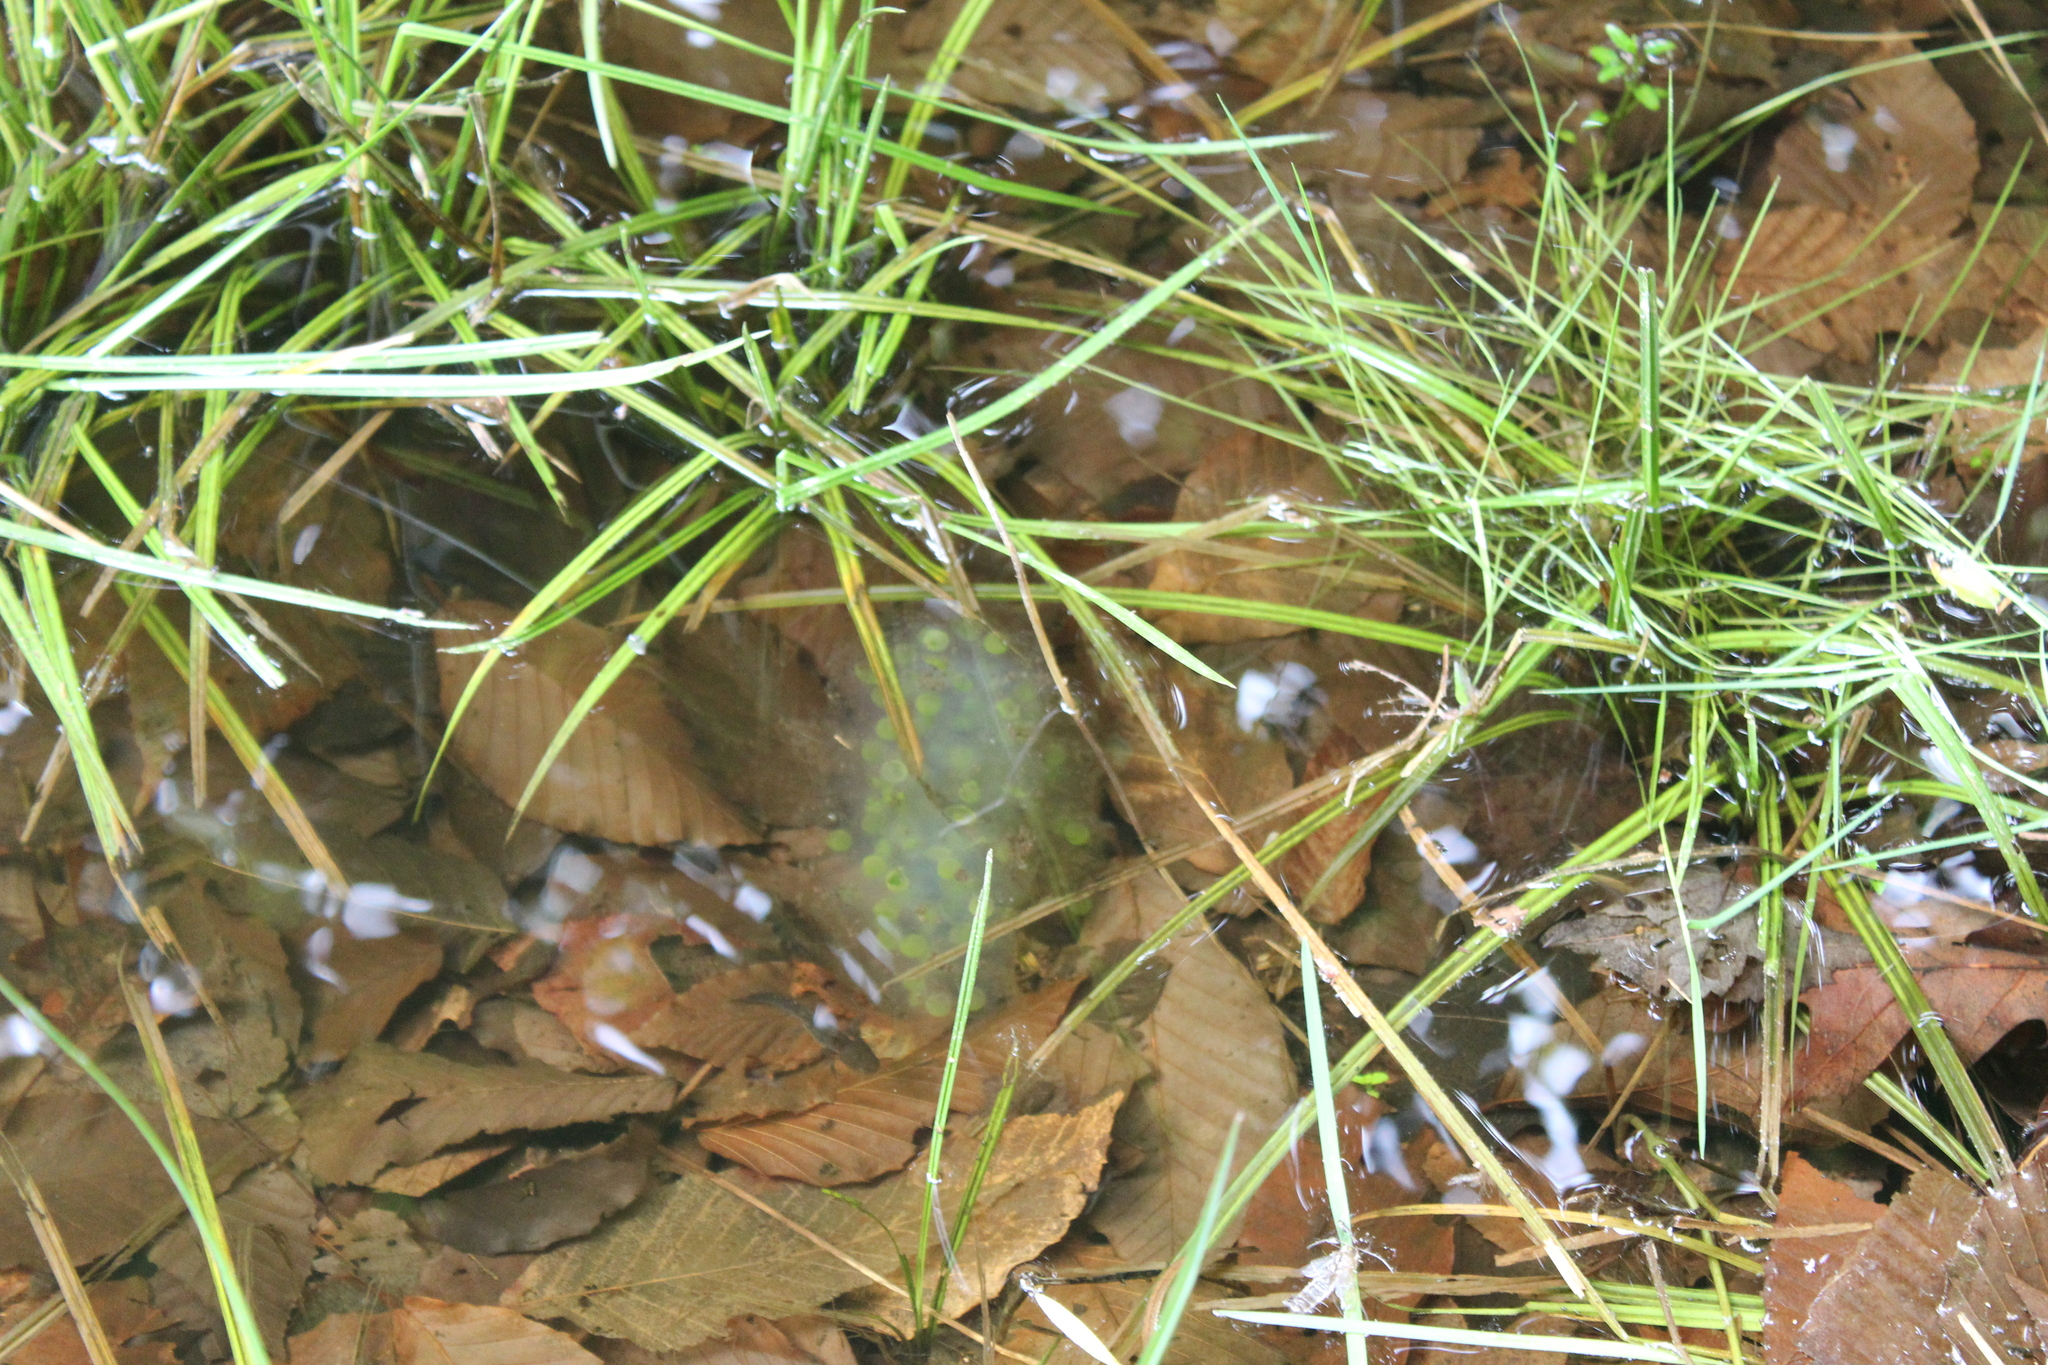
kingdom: Animalia
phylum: Chordata
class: Amphibia
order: Caudata
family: Ambystomatidae
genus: Ambystoma
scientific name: Ambystoma maculatum
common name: Spotted salamander
